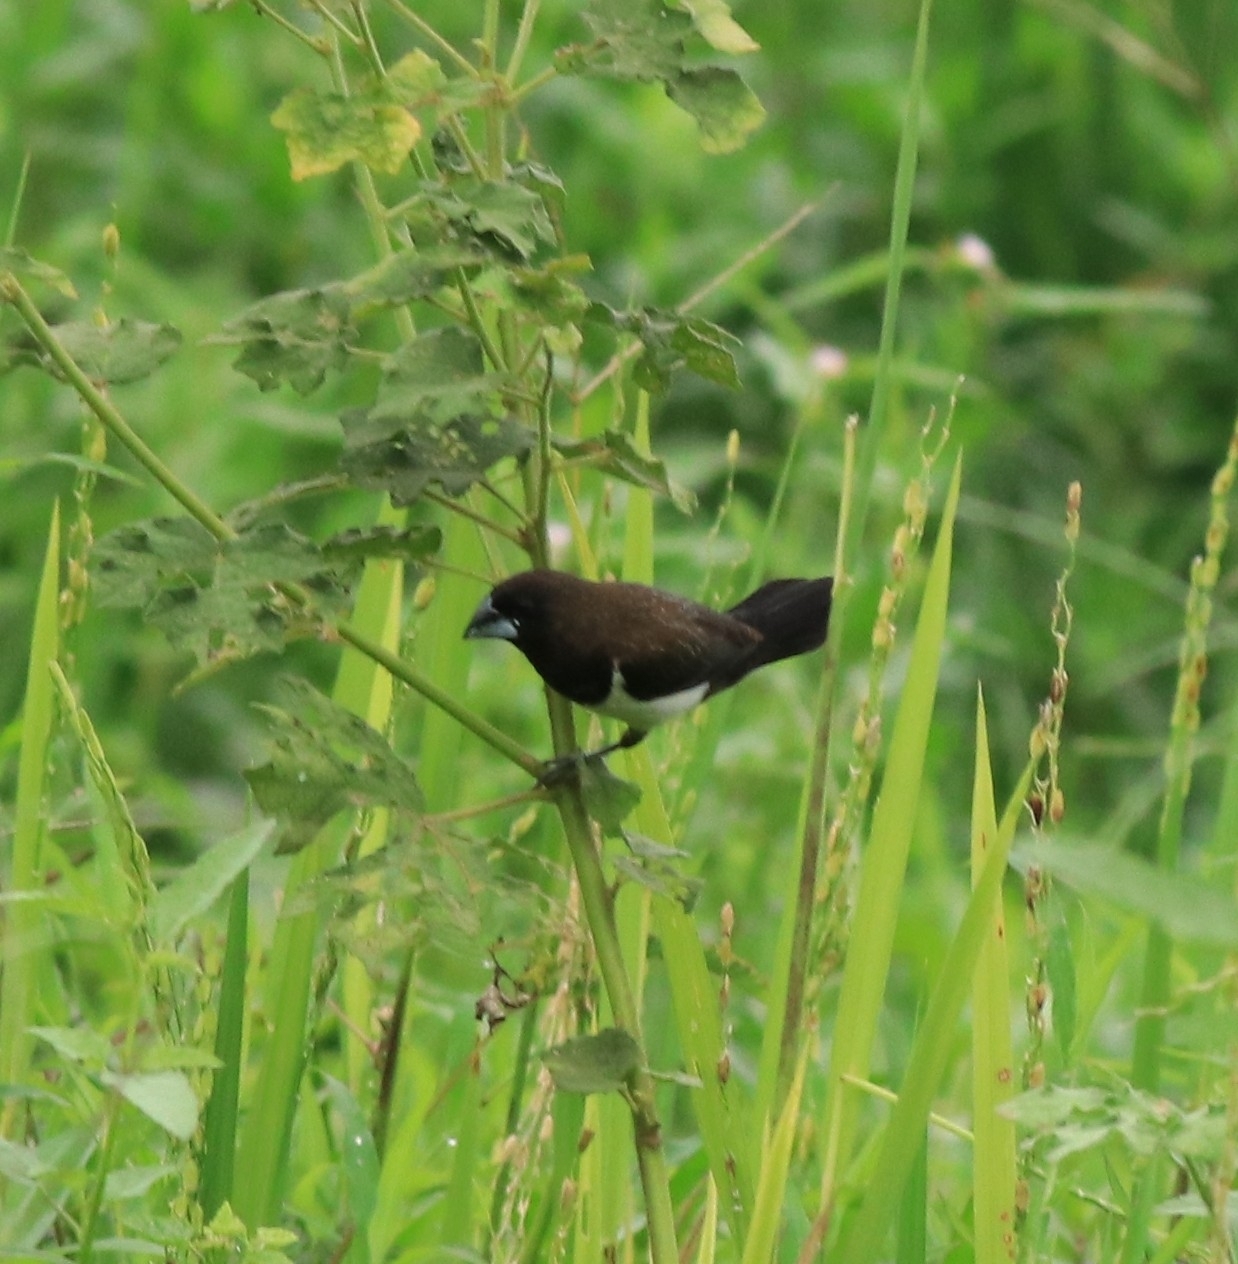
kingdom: Animalia
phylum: Chordata
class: Aves
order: Passeriformes
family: Estrildidae
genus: Lonchura
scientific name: Lonchura striata
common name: White-rumped munia
